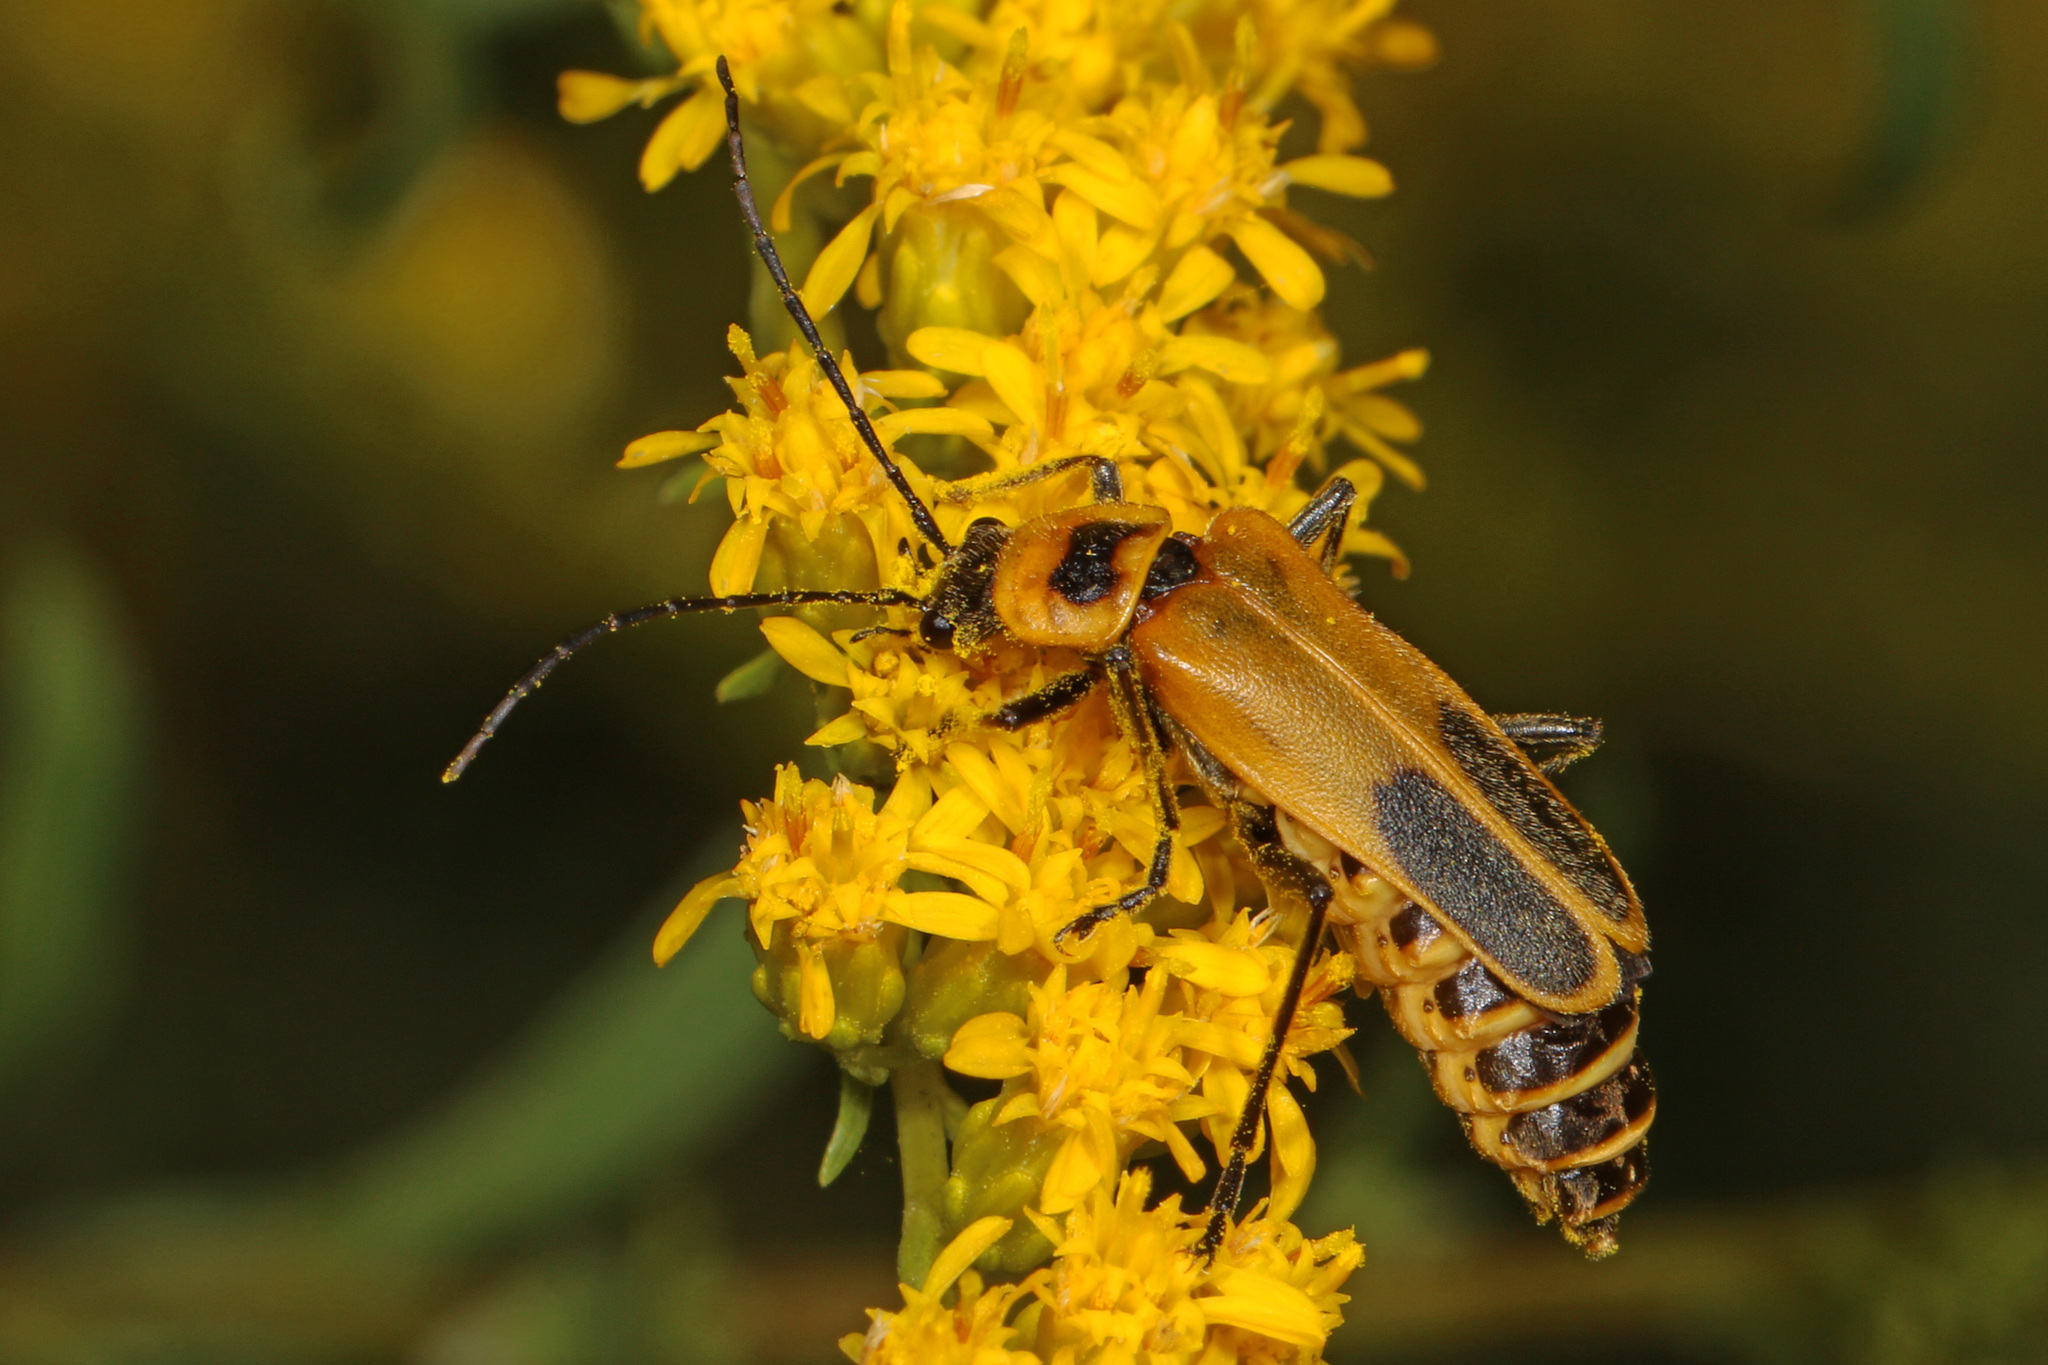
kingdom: Animalia
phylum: Arthropoda
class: Insecta
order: Coleoptera
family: Cantharidae
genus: Chauliognathus
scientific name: Chauliognathus pensylvanicus
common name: Goldenrod soldier beetle
